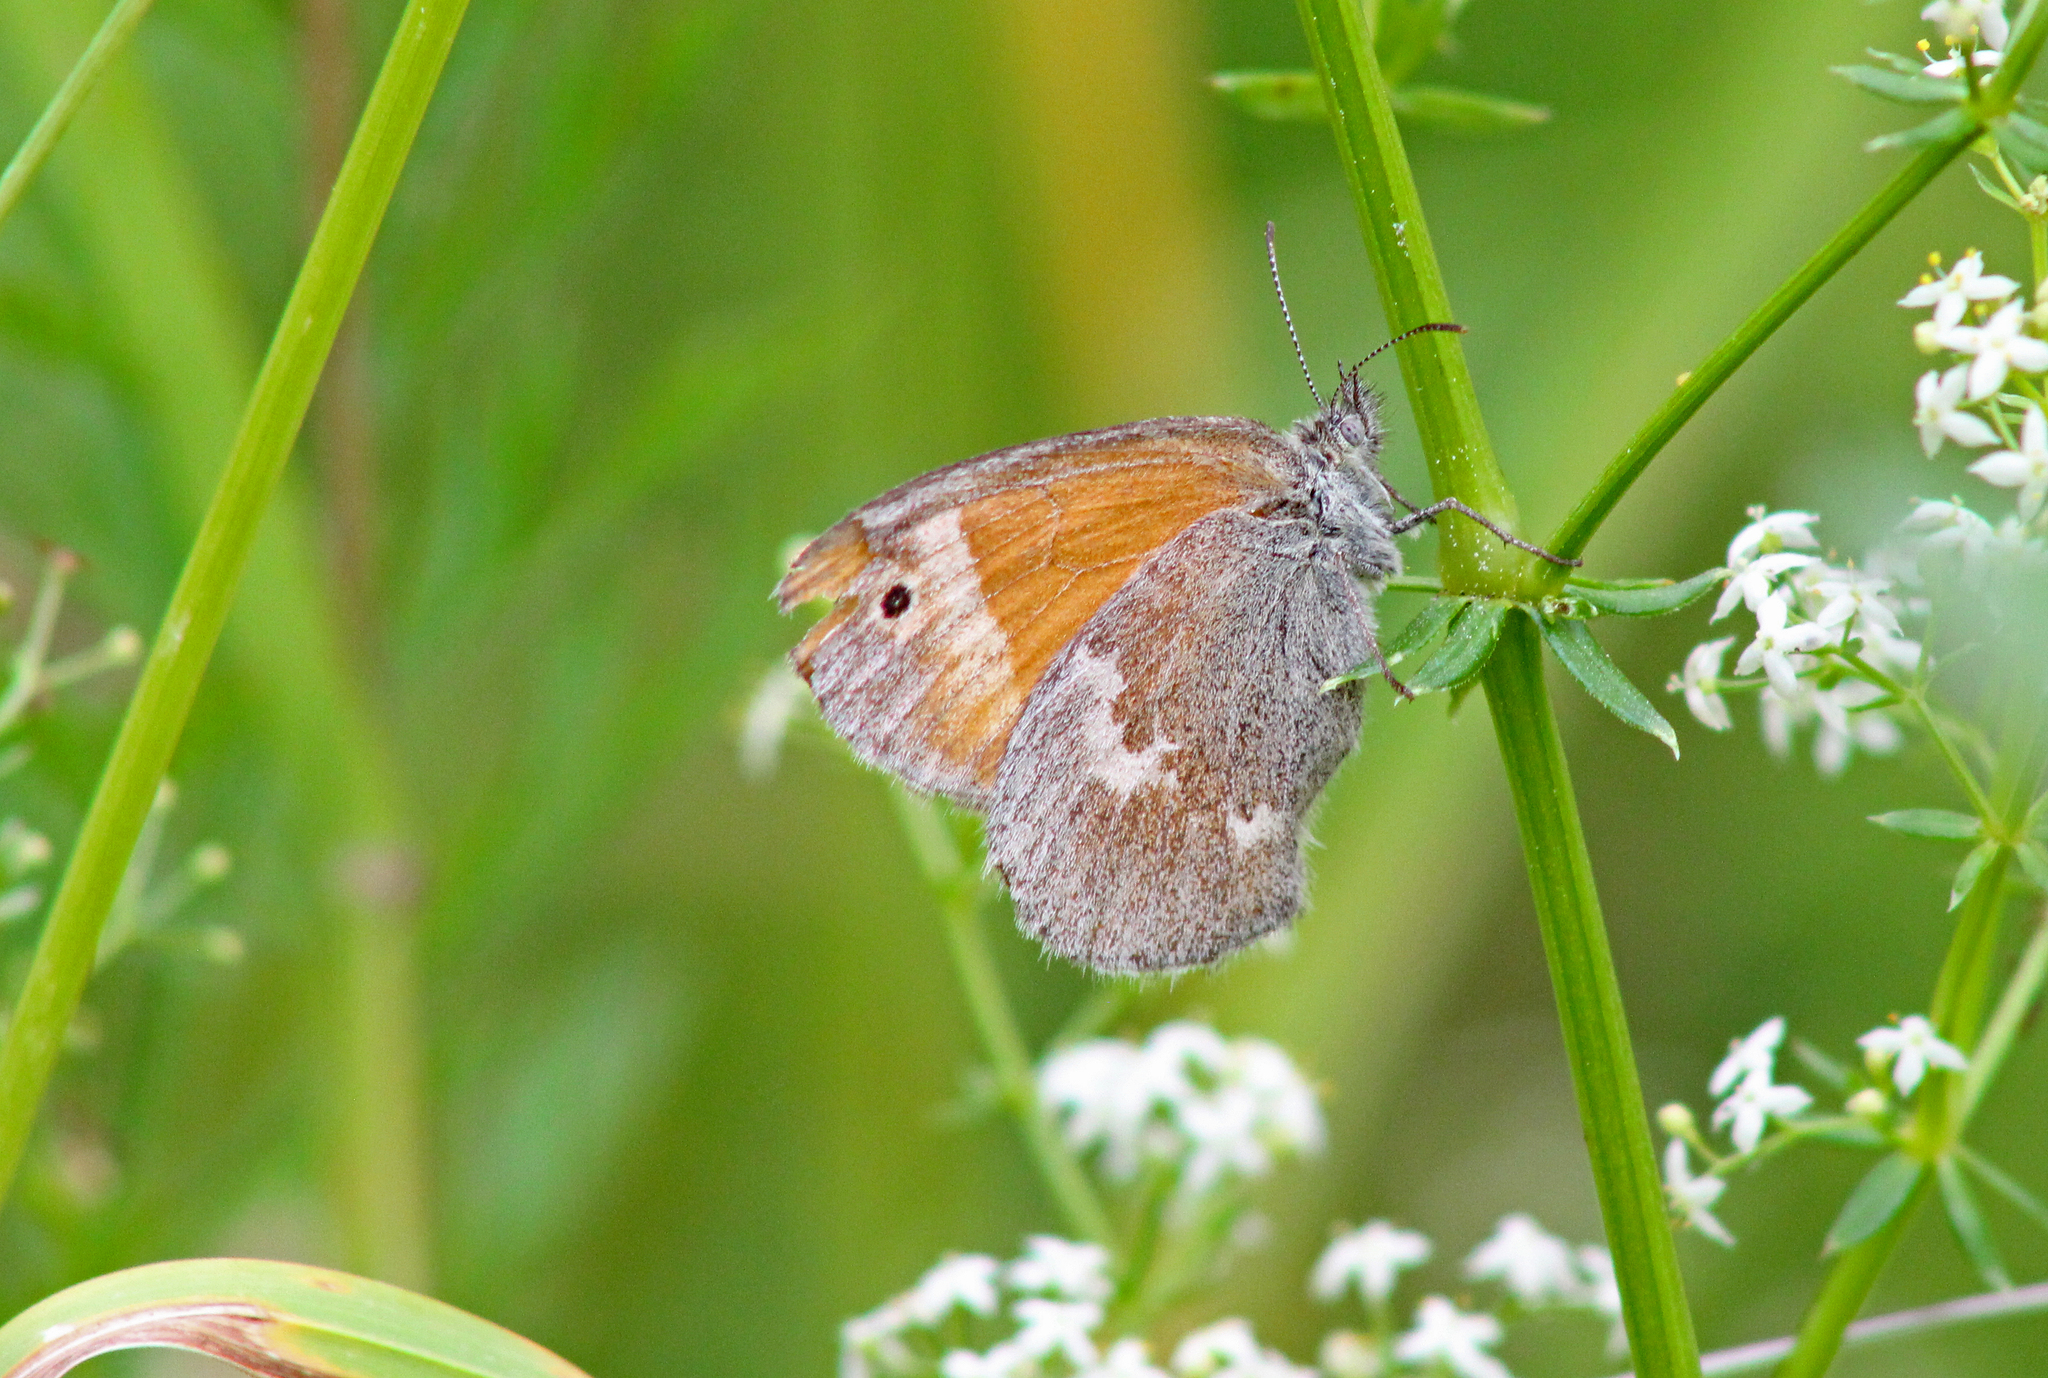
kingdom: Animalia
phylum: Arthropoda
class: Insecta
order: Lepidoptera
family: Nymphalidae
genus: Coenonympha
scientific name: Coenonympha california
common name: Common ringlet
